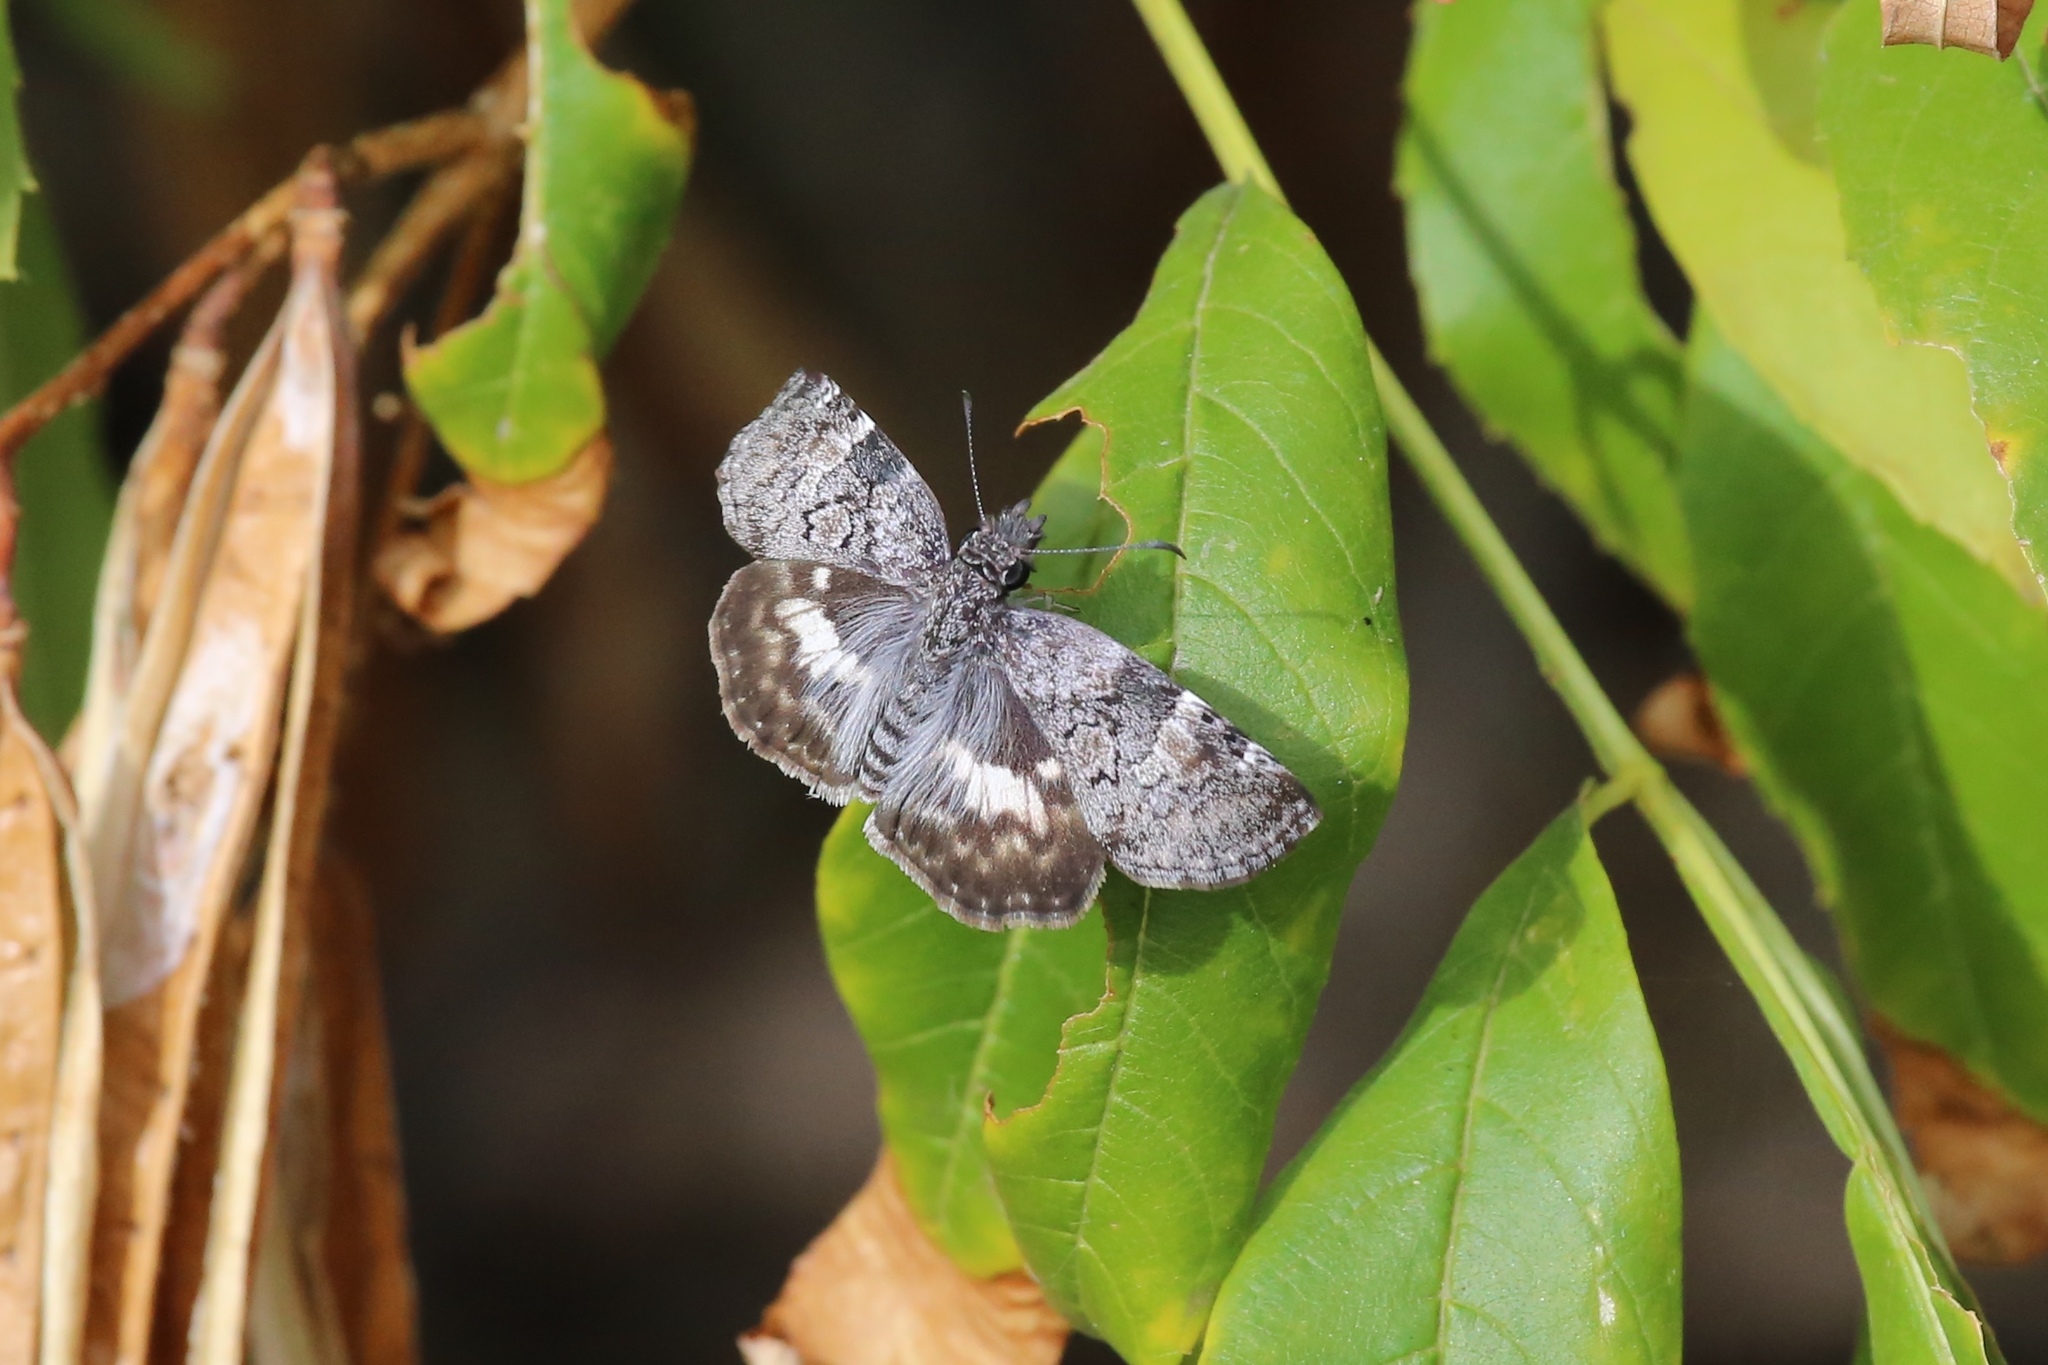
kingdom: Animalia
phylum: Arthropoda
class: Insecta
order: Lepidoptera
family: Hesperiidae
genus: Chiothion
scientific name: Chiothion georgina
